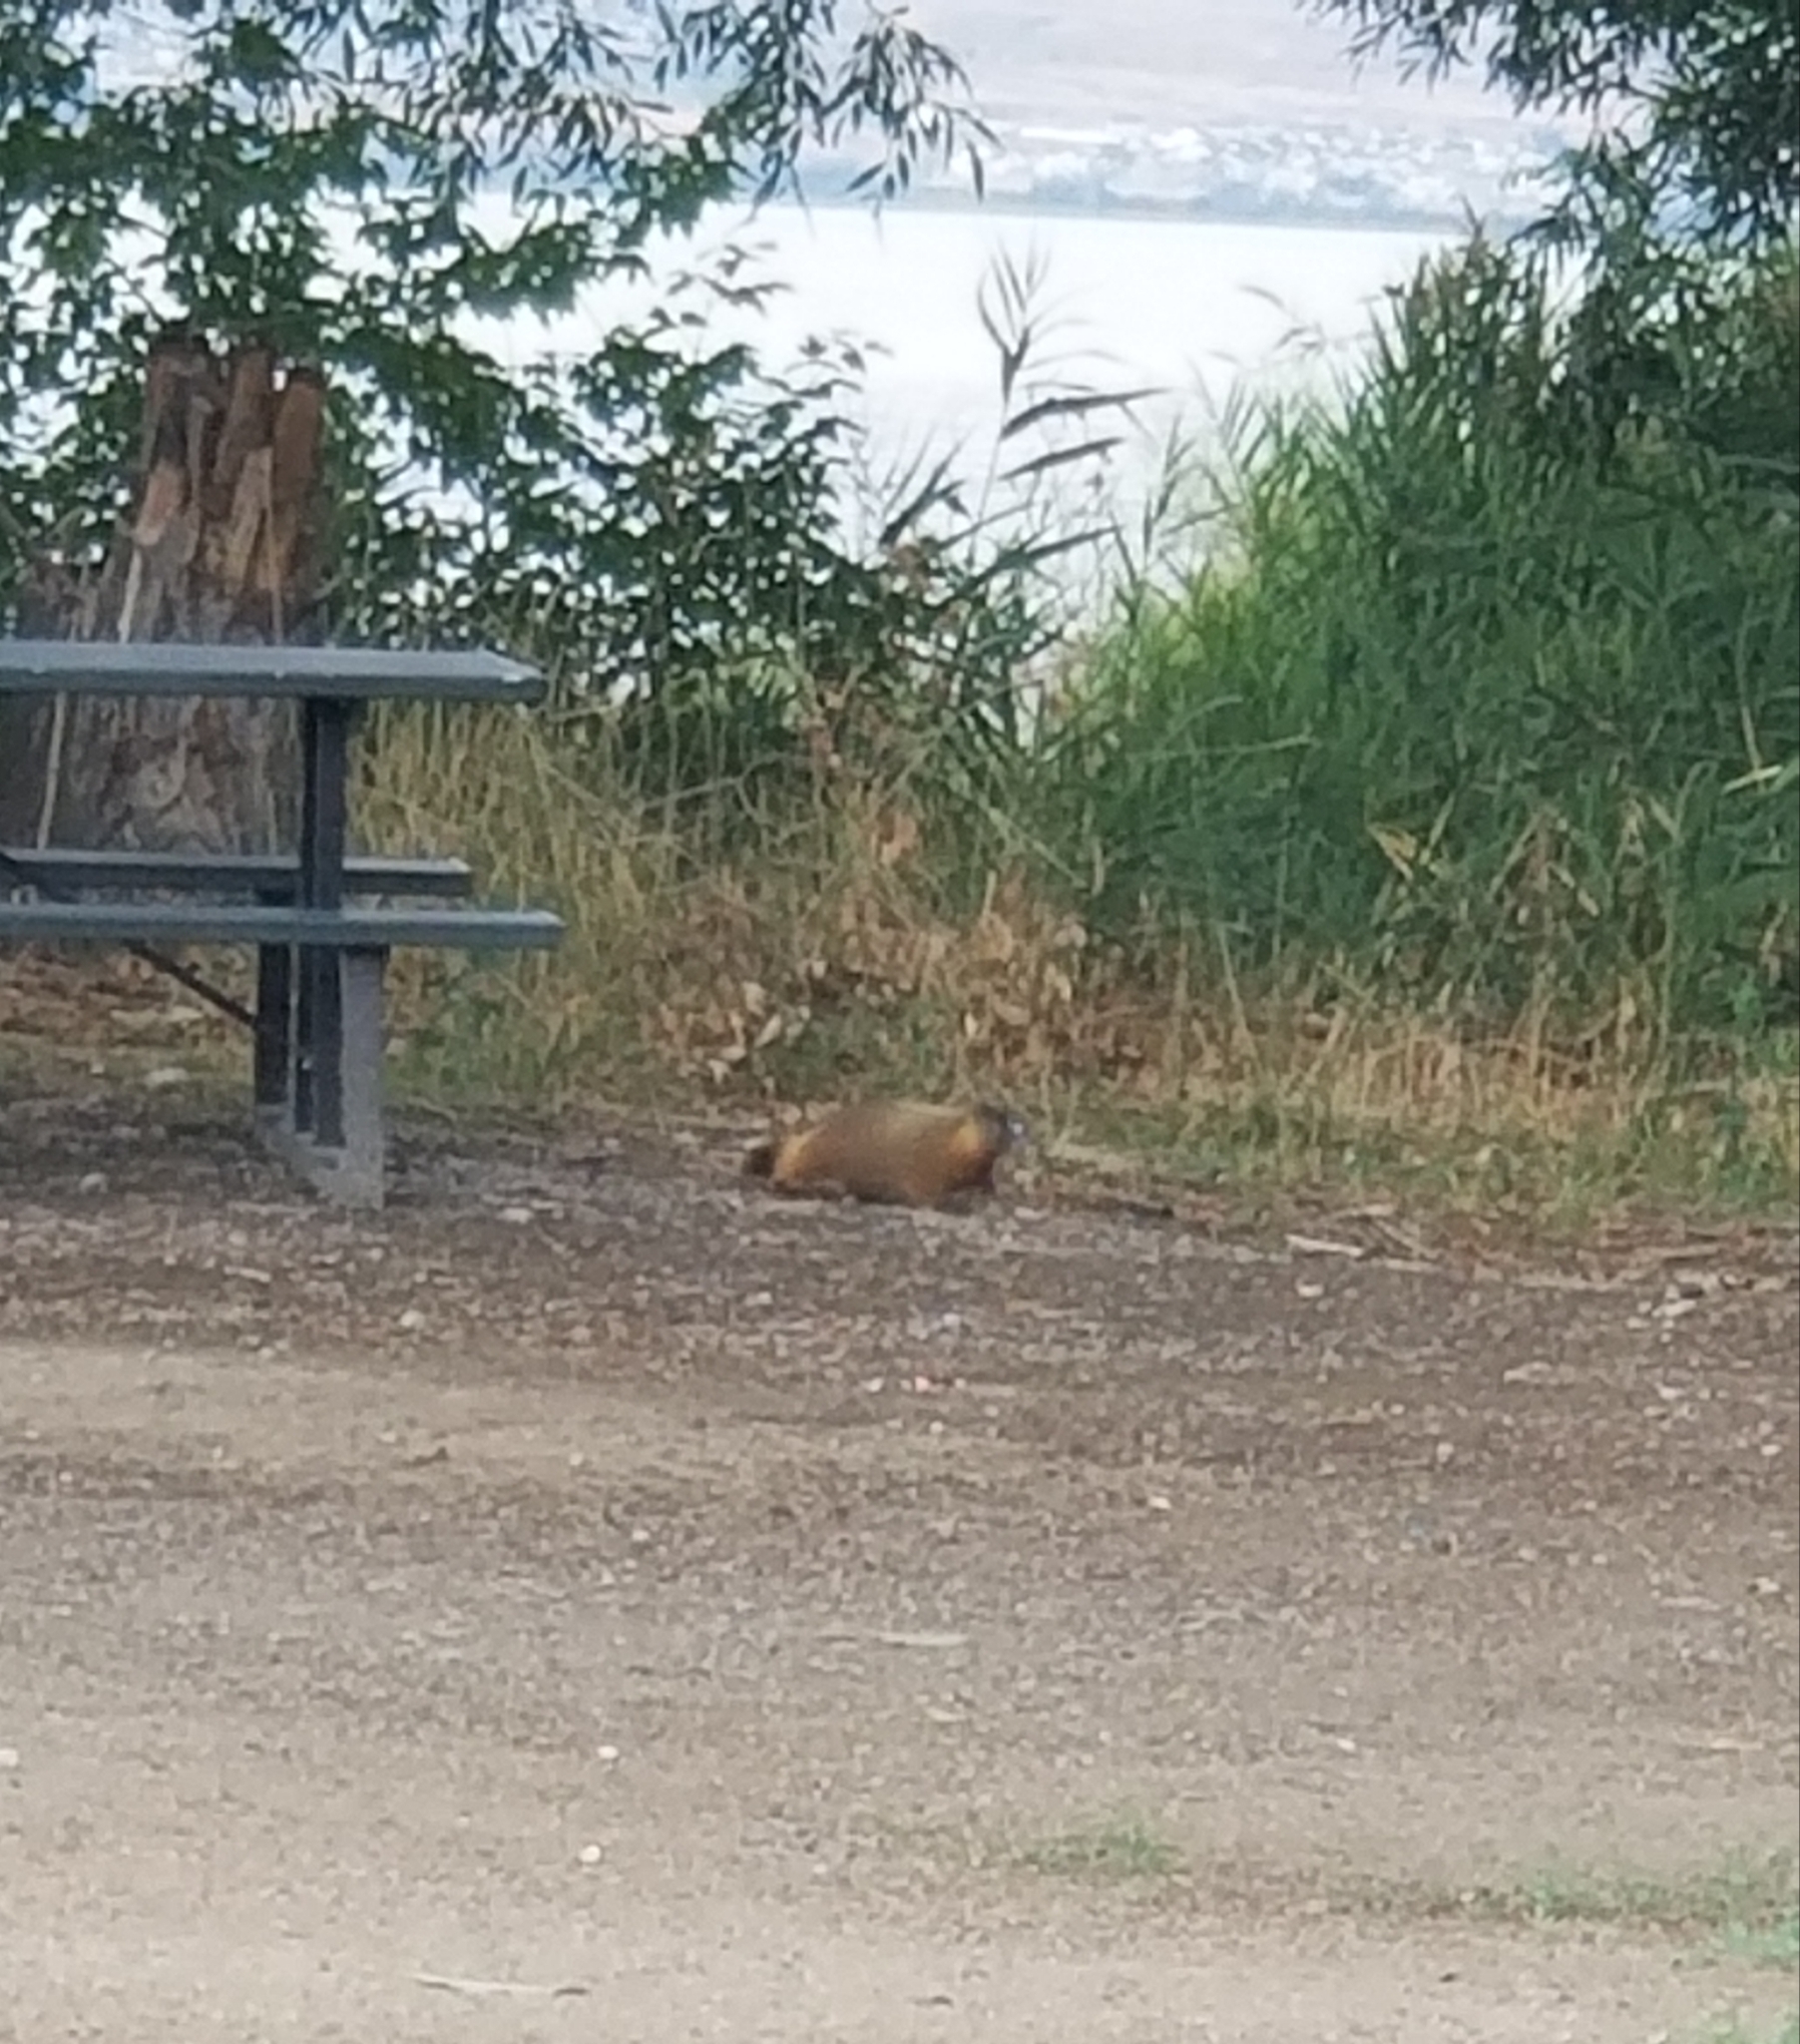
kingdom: Animalia
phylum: Chordata
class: Mammalia
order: Rodentia
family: Sciuridae
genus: Marmota
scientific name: Marmota flaviventris
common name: Yellow-bellied marmot
